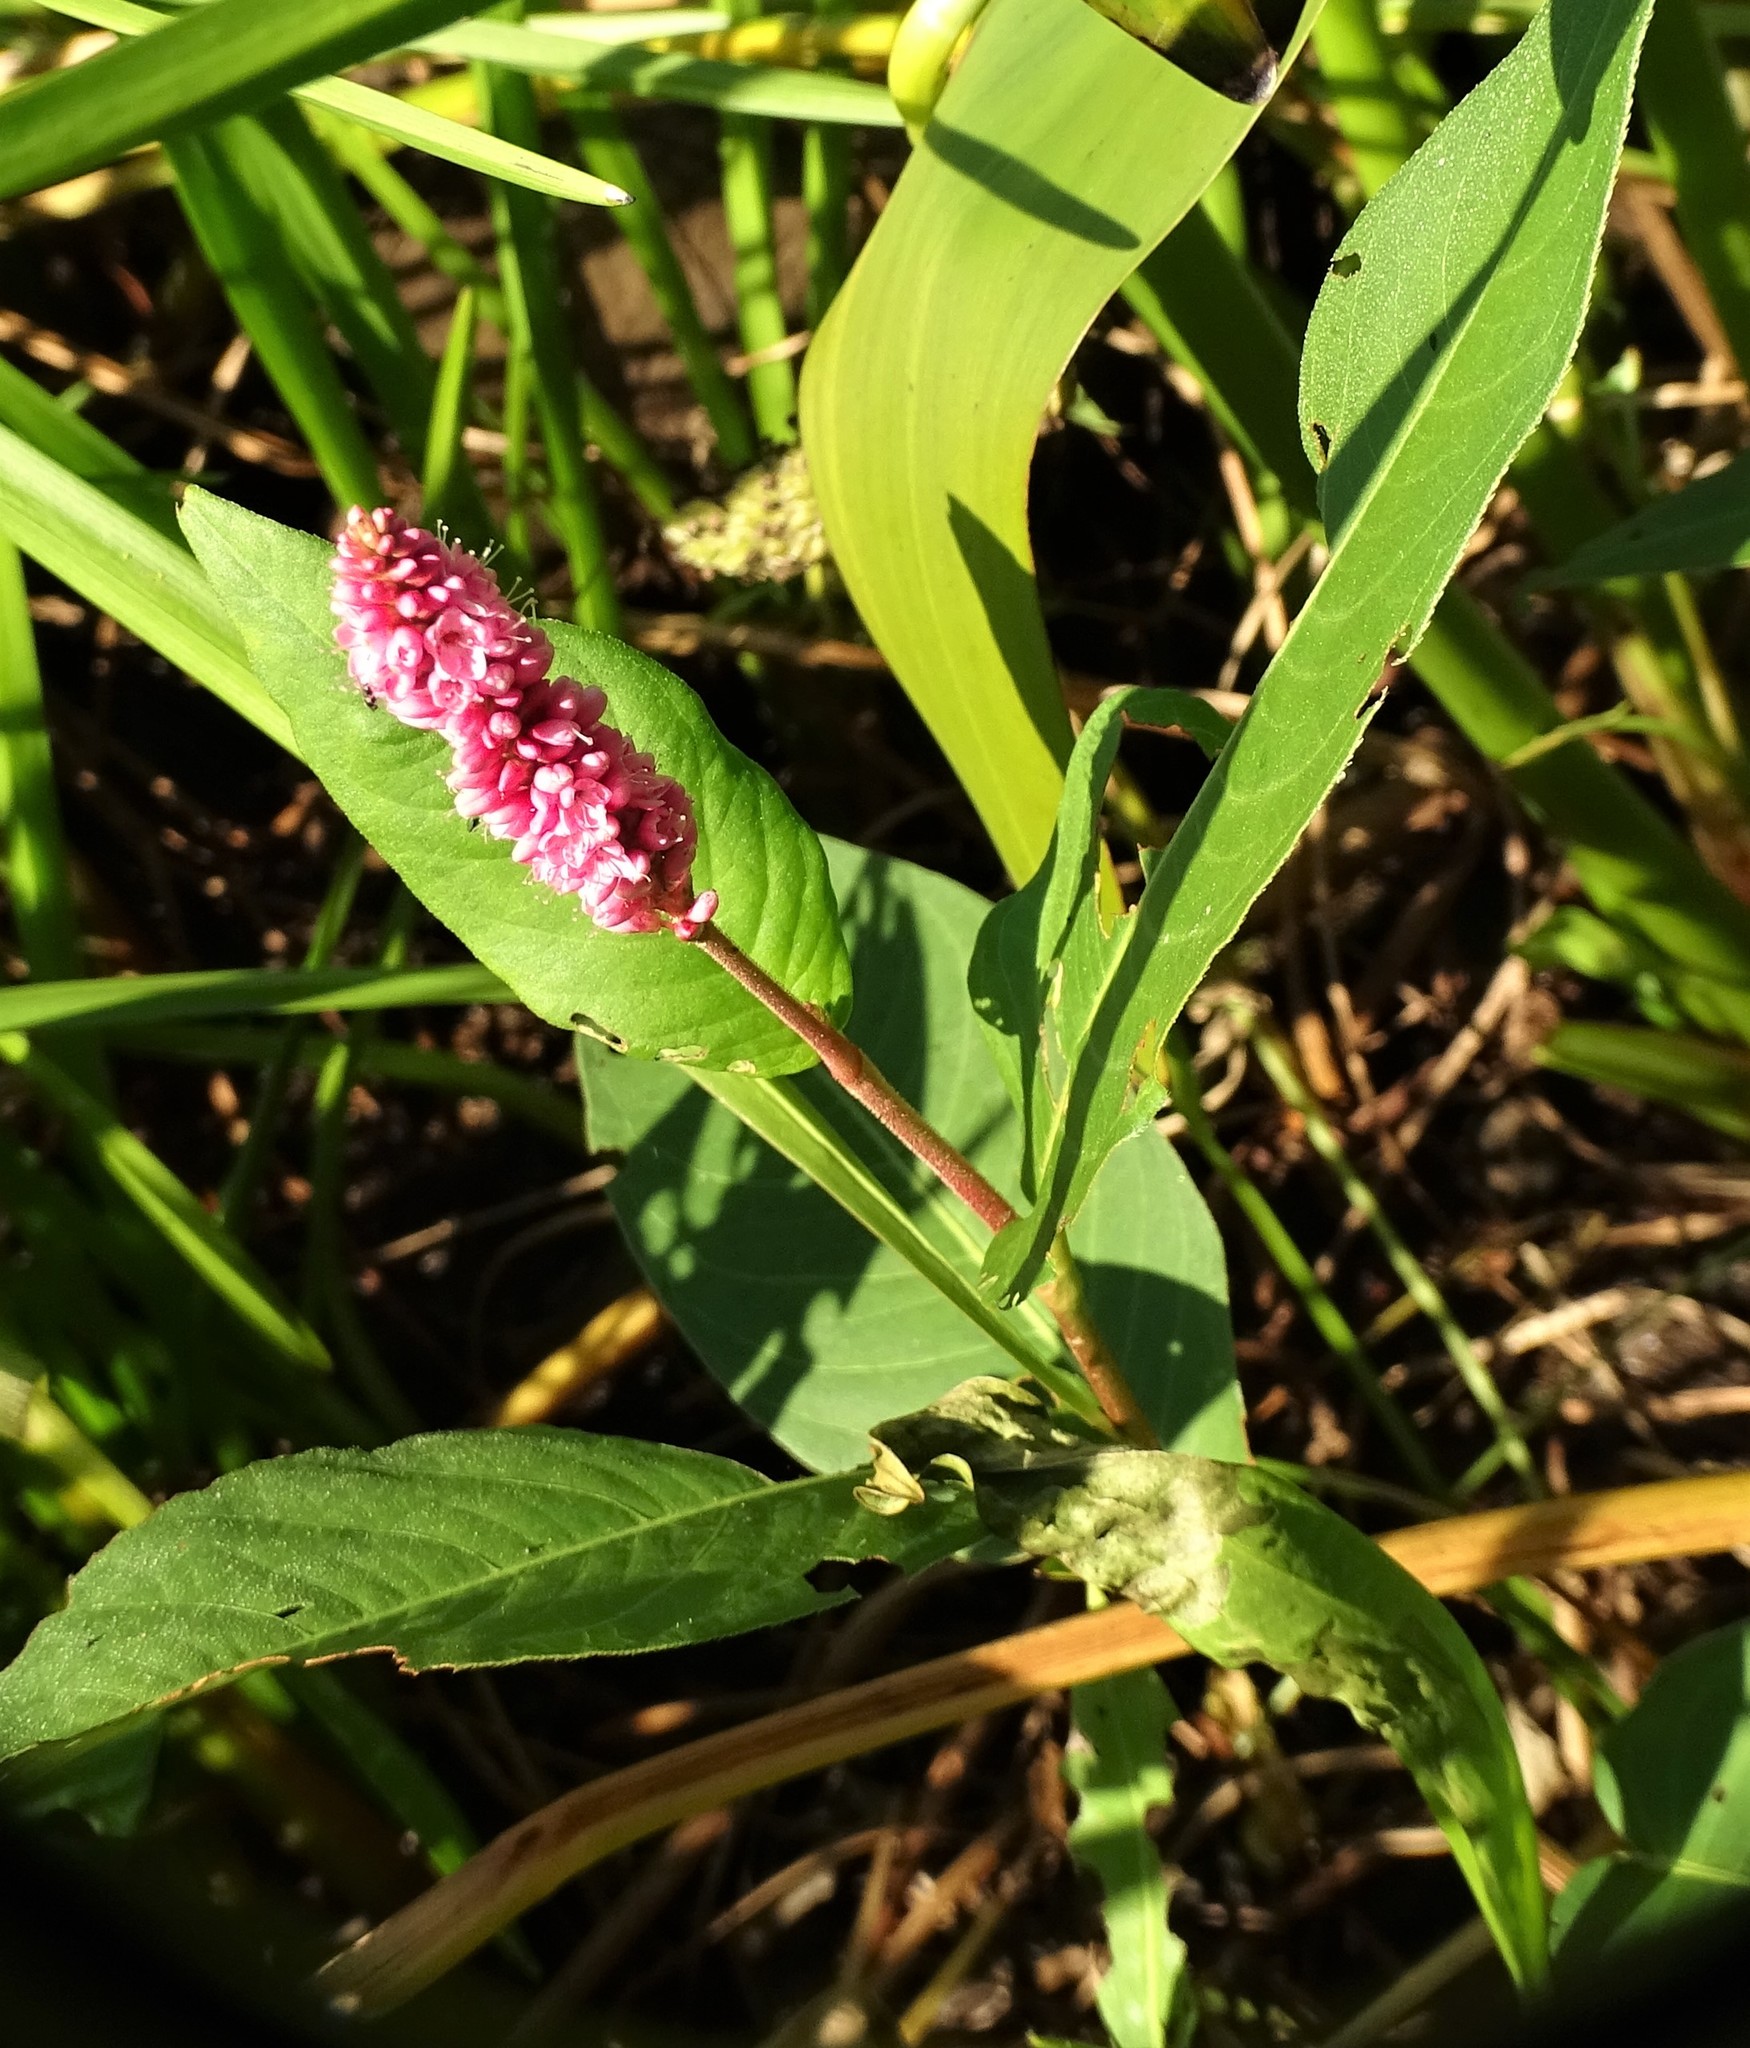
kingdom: Plantae
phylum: Tracheophyta
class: Magnoliopsida
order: Caryophyllales
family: Polygonaceae
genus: Persicaria
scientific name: Persicaria amphibia
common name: Amphibious bistort
